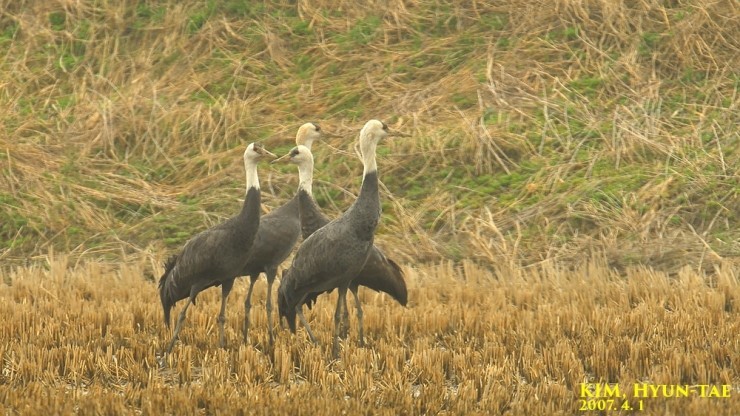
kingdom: Animalia
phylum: Chordata
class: Aves
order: Gruiformes
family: Gruidae
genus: Grus
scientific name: Grus monacha
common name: Hooded crane
